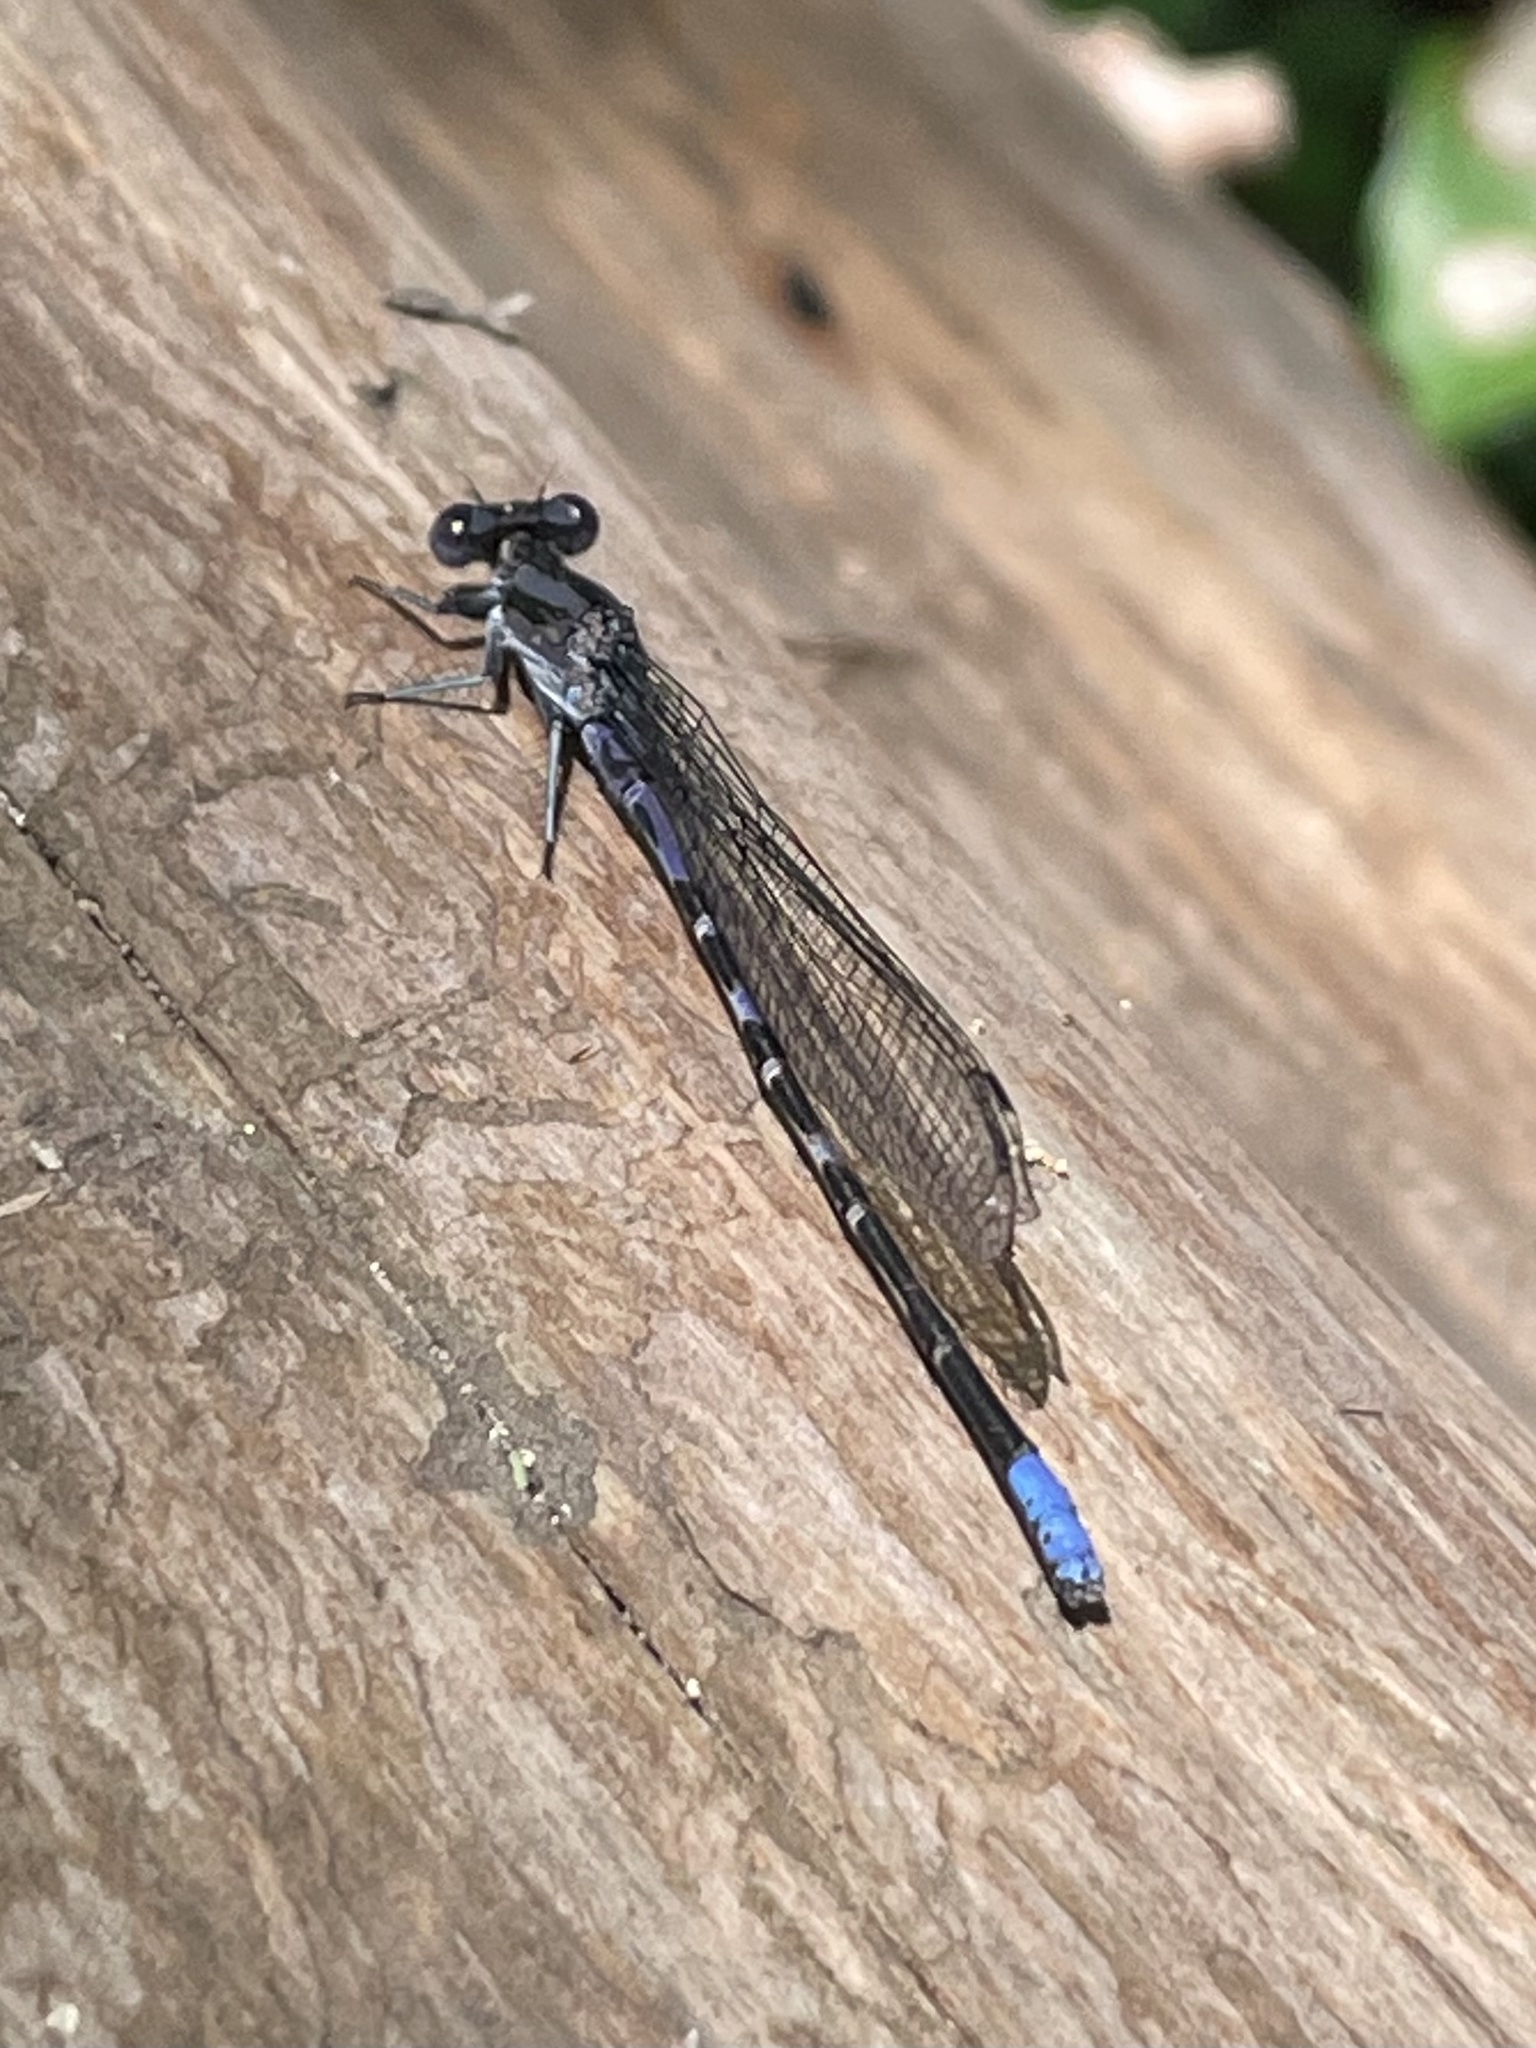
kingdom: Animalia
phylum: Arthropoda
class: Insecta
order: Odonata
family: Coenagrionidae
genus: Argia
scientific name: Argia immunda
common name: Kiowa dancer
